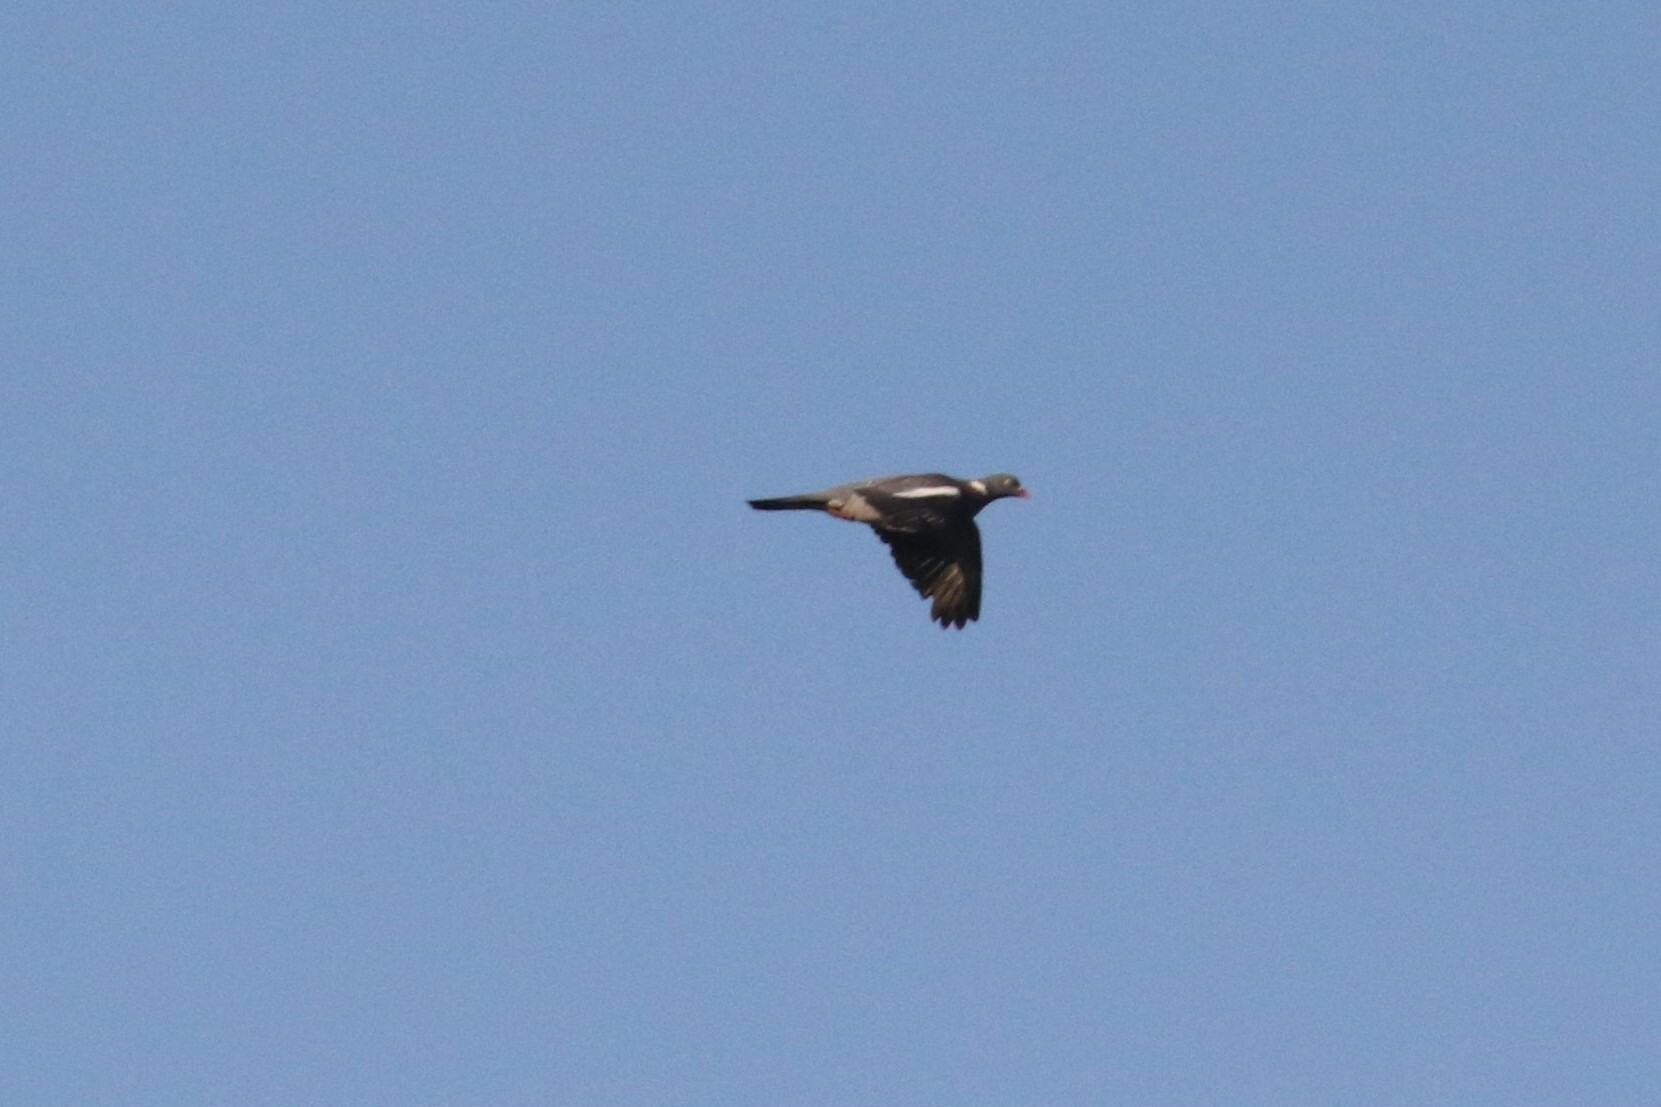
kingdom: Animalia
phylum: Chordata
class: Aves
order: Columbiformes
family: Columbidae
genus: Columba
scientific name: Columba palumbus
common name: Common wood pigeon
